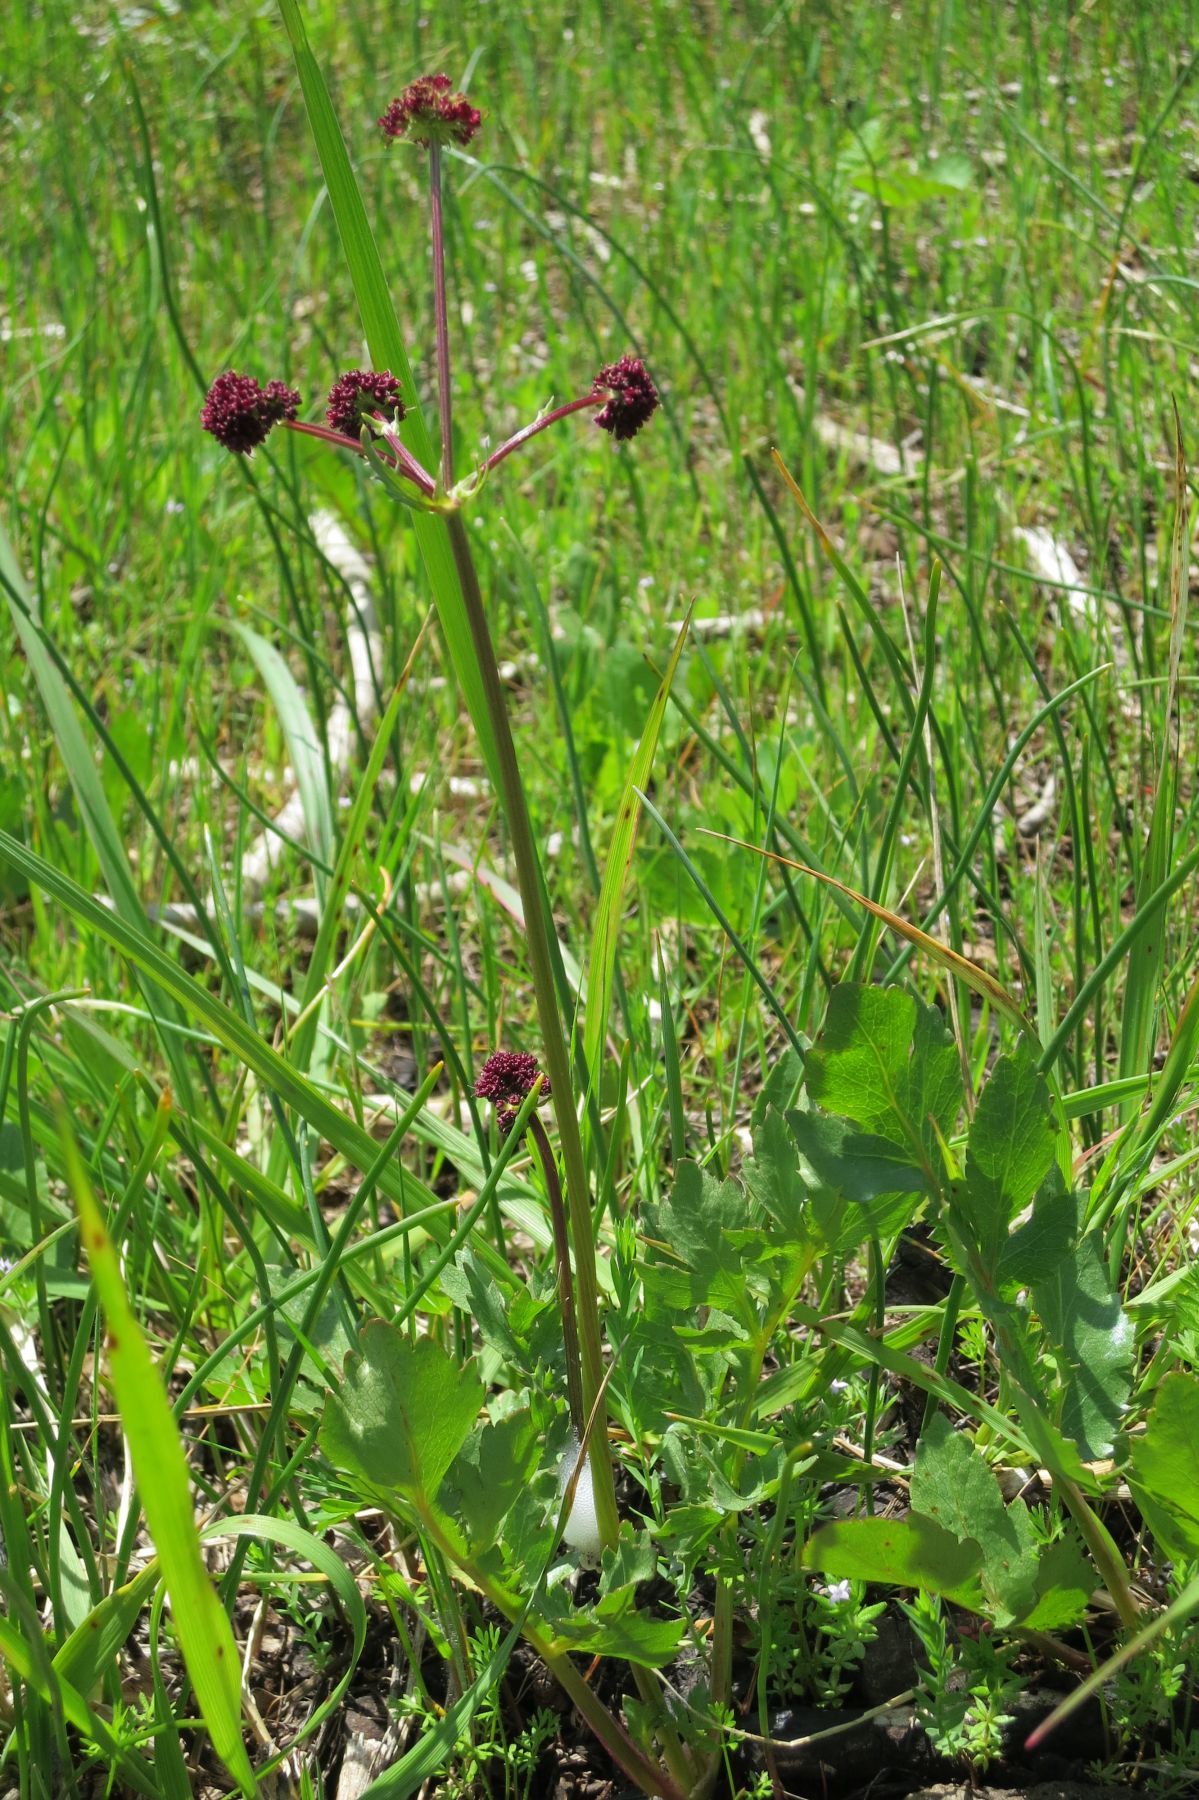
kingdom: Plantae
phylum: Tracheophyta
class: Magnoliopsida
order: Apiales
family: Apiaceae
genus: Sanicula
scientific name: Sanicula bipinnatifida
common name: Shoe-buttons
